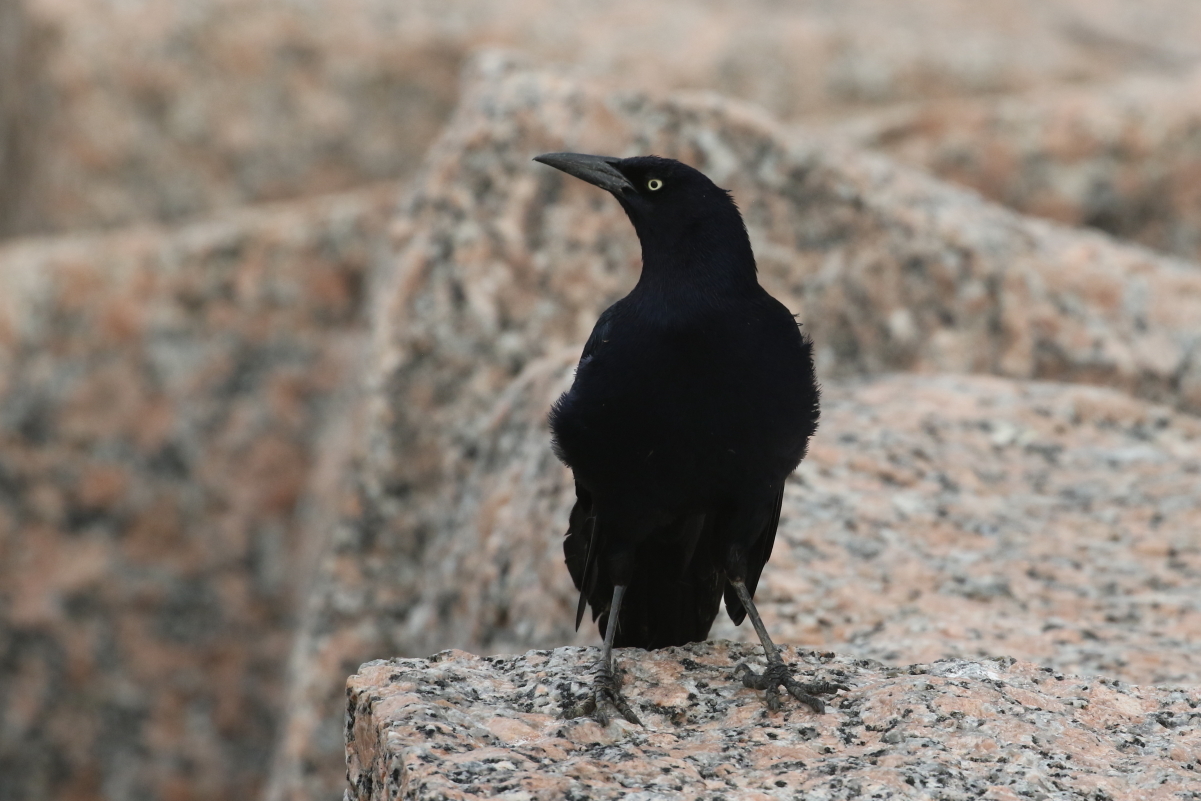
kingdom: Animalia
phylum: Chordata
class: Aves
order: Passeriformes
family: Icteridae
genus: Quiscalus
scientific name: Quiscalus mexicanus
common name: Great-tailed grackle
